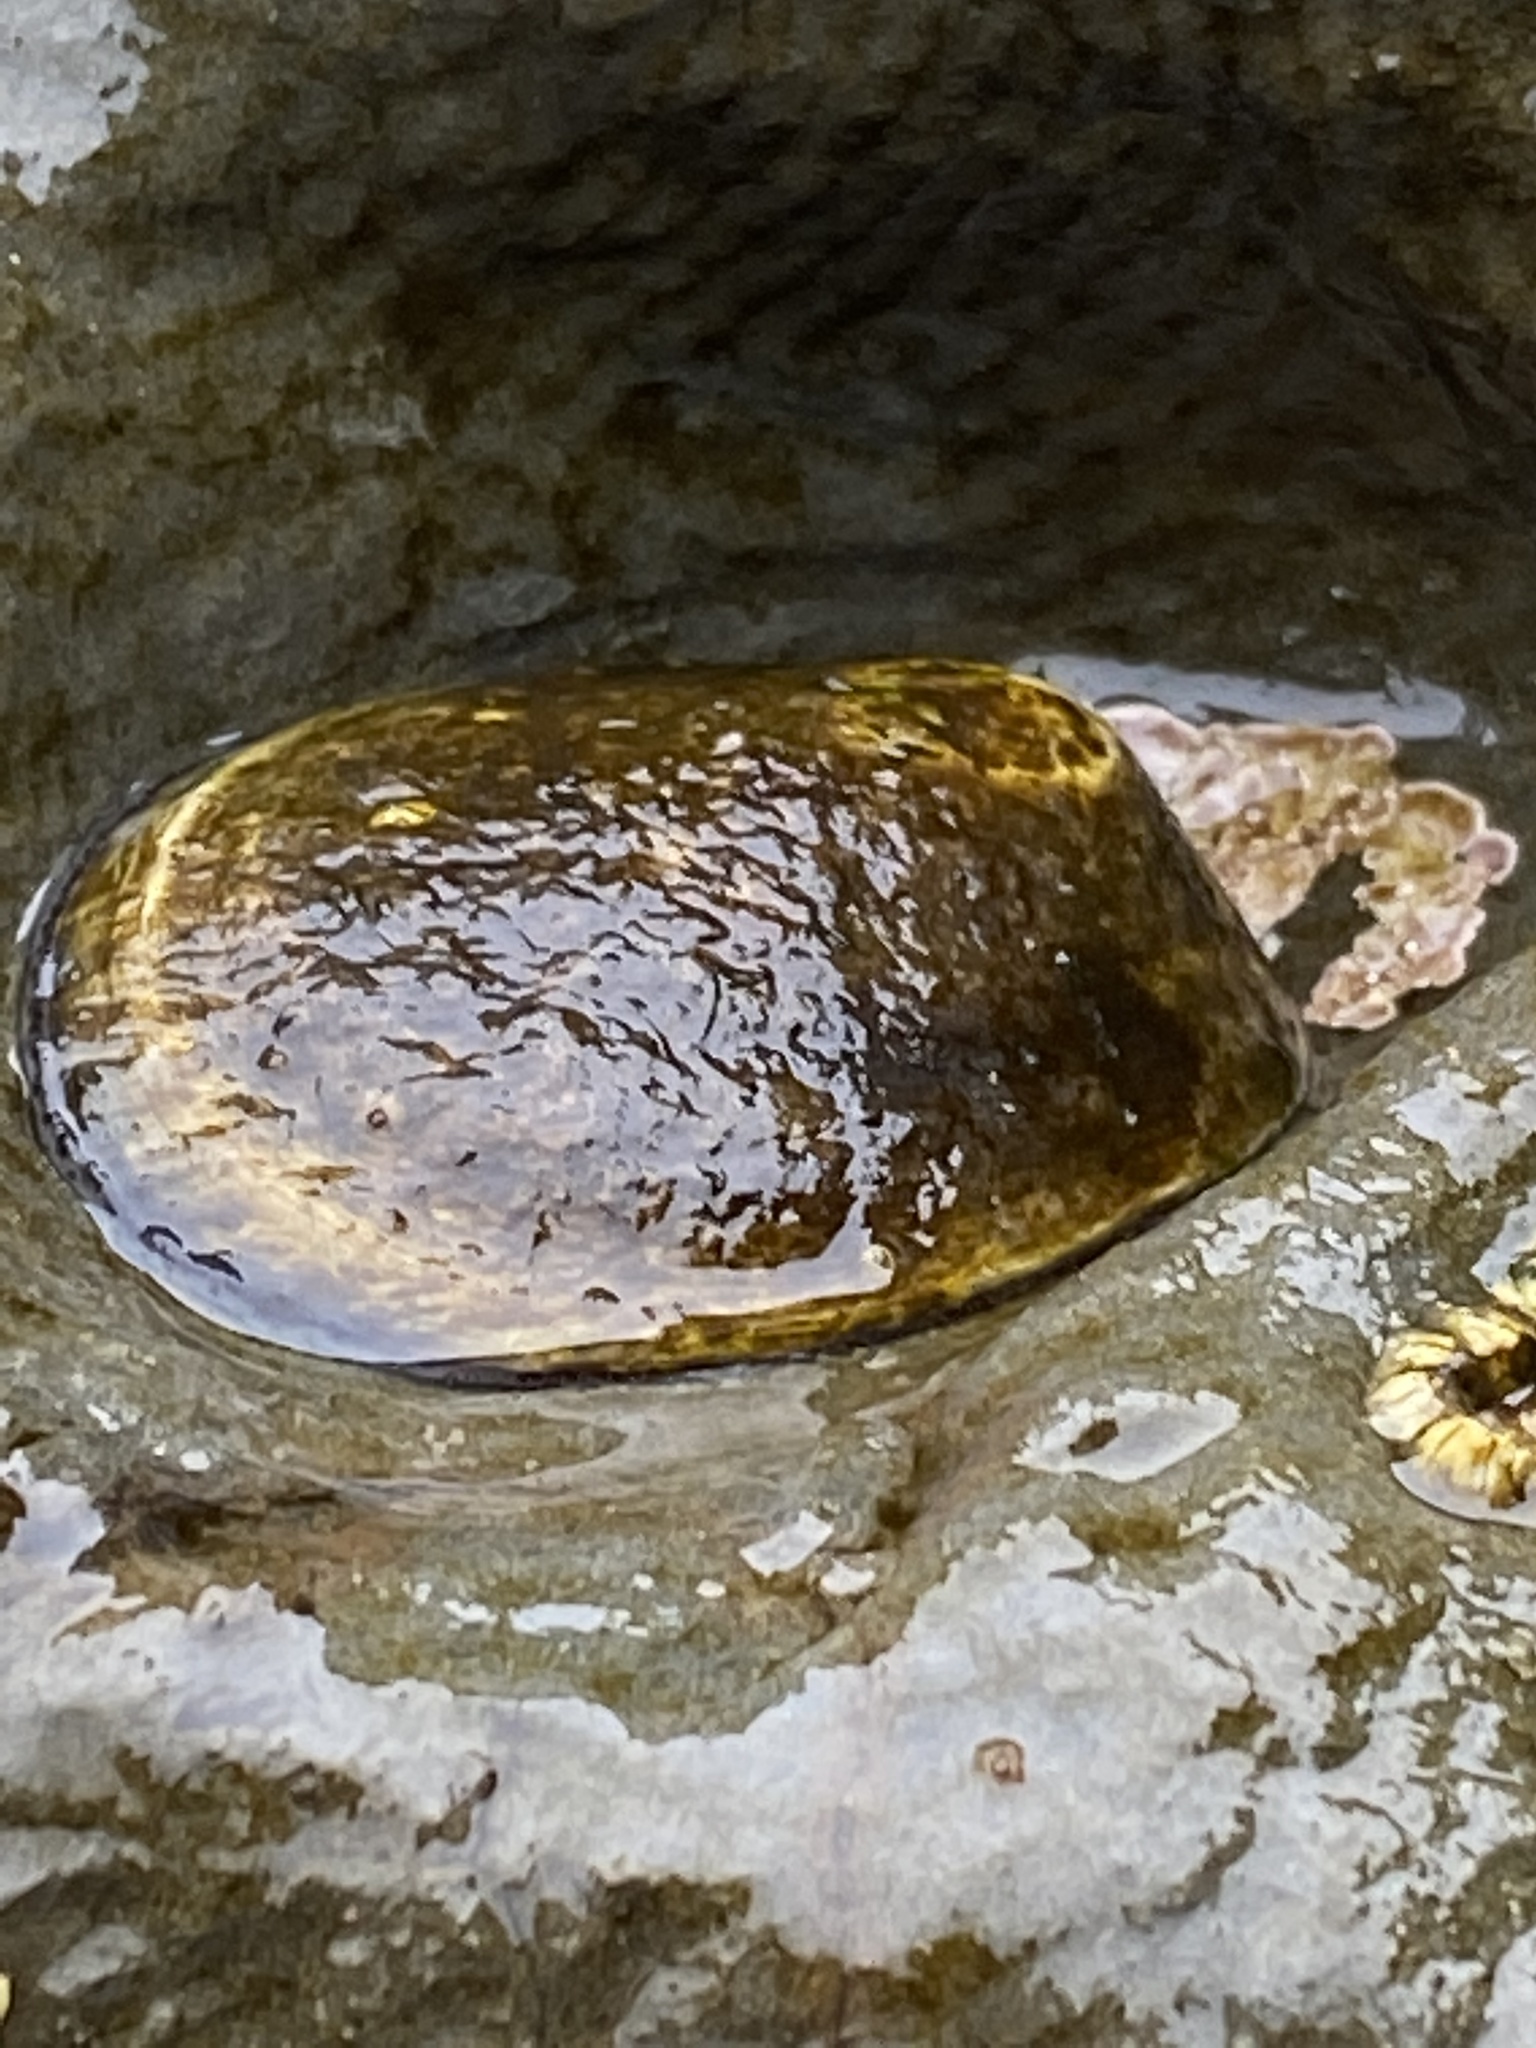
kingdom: Animalia
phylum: Mollusca
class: Gastropoda
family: Lottiidae
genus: Lottia
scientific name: Lottia gigantea
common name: Owl limpet
